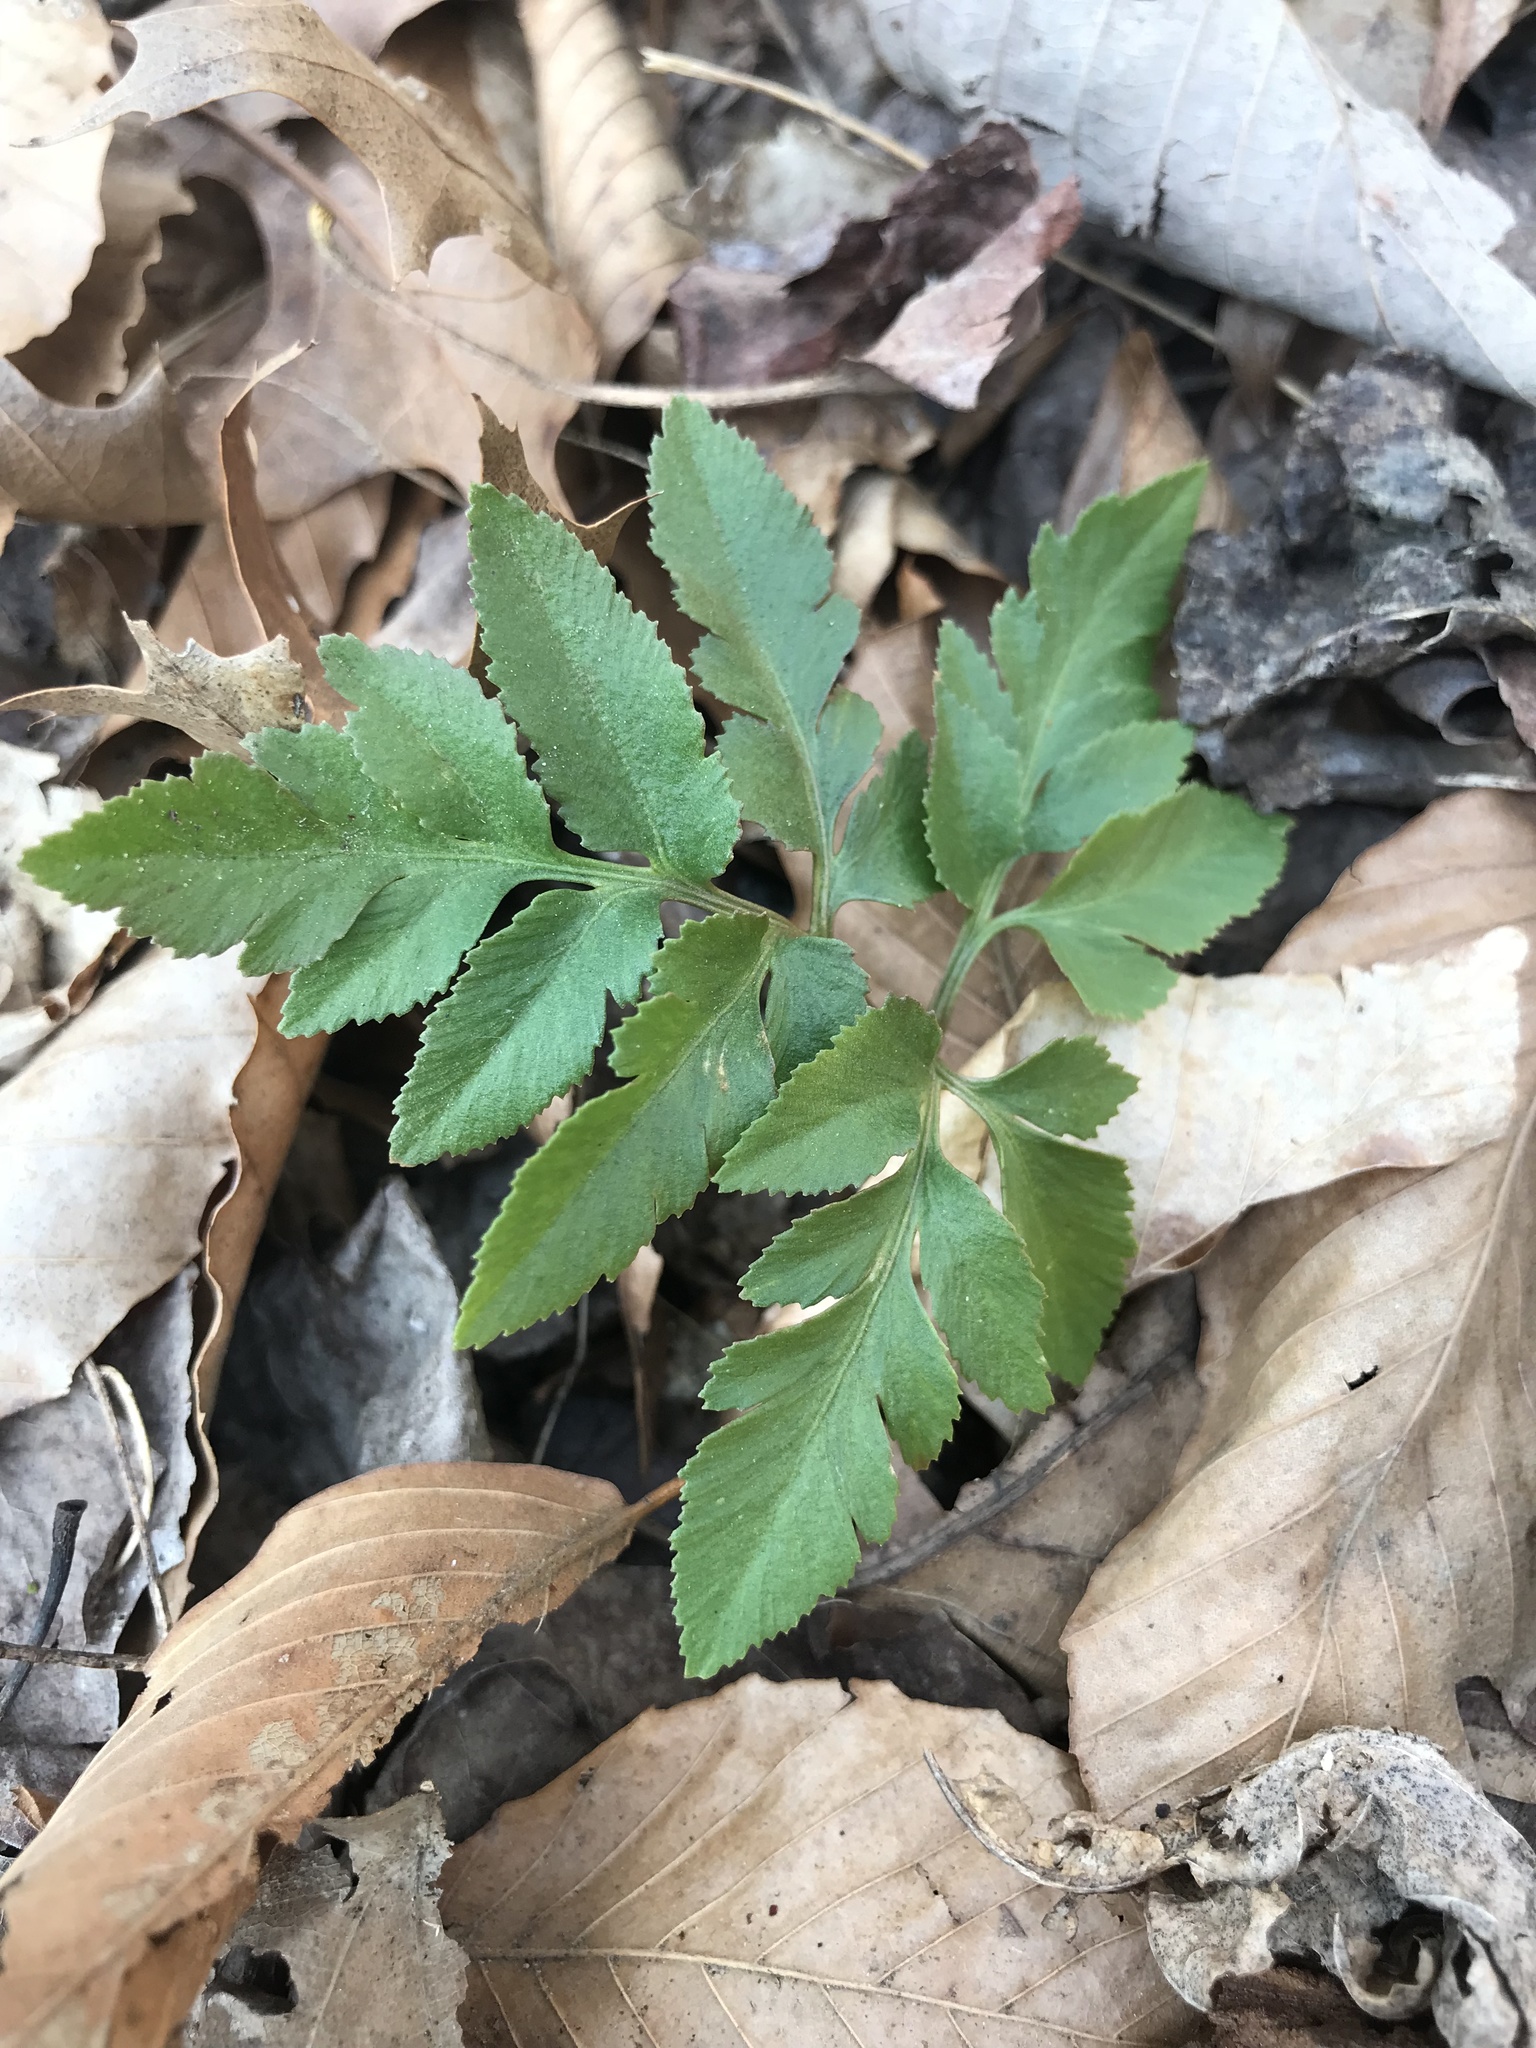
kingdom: Plantae
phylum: Tracheophyta
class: Polypodiopsida
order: Ophioglossales
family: Ophioglossaceae
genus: Sceptridium
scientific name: Sceptridium dissectum
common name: Cut-leaved grapefern
